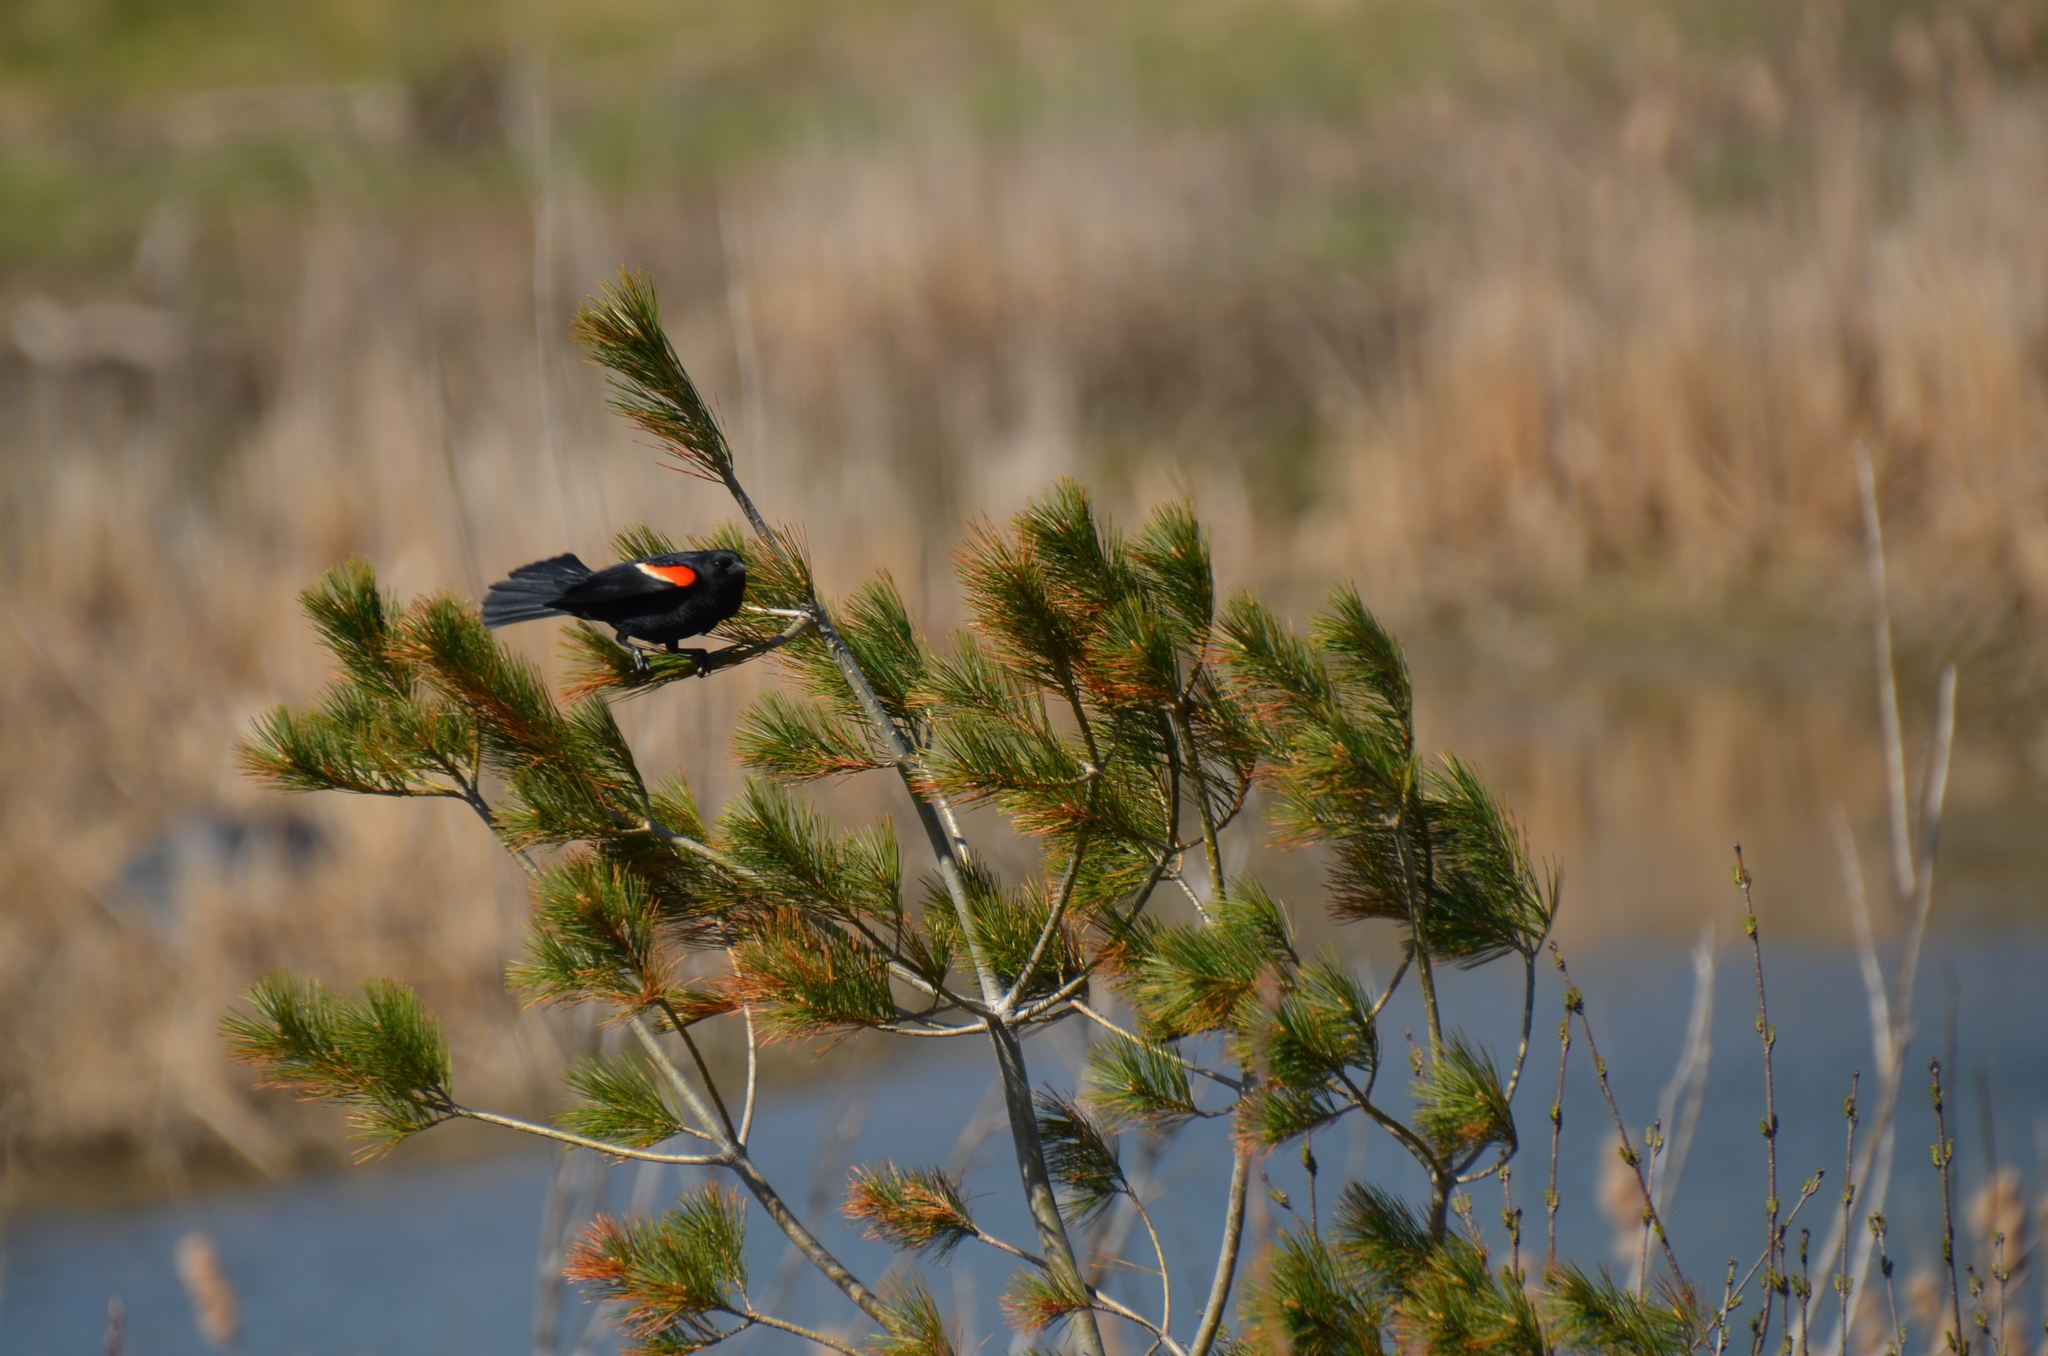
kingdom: Animalia
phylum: Chordata
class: Aves
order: Passeriformes
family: Icteridae
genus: Agelaius
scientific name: Agelaius phoeniceus
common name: Red-winged blackbird
